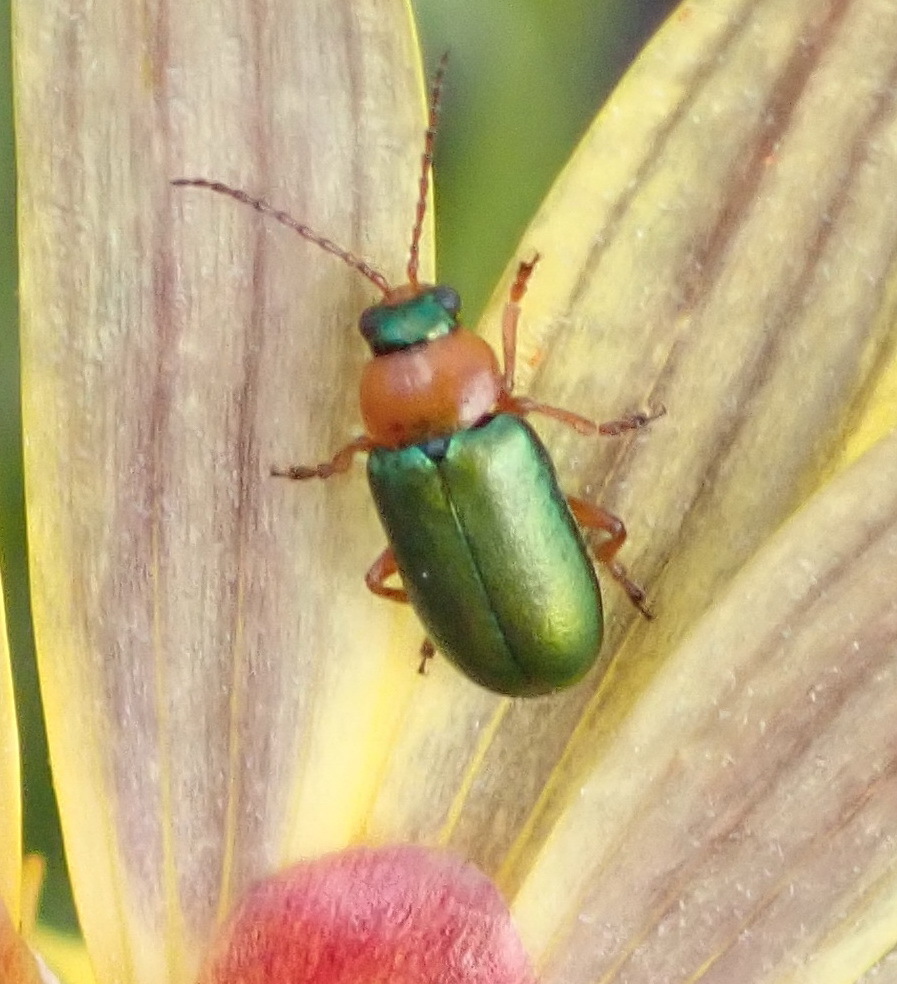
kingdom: Animalia
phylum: Arthropoda
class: Insecta
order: Coleoptera
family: Chrysomelidae
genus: Palaeophylia
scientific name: Palaeophylia
